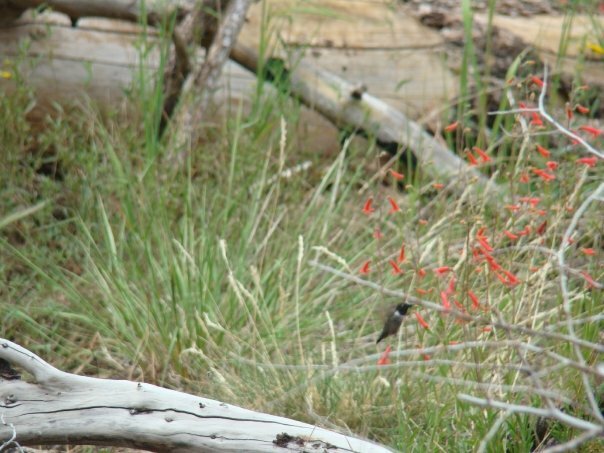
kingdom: Animalia
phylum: Chordata
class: Aves
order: Apodiformes
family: Trochilidae
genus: Archilochus
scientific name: Archilochus alexandri
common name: Black-chinned hummingbird
